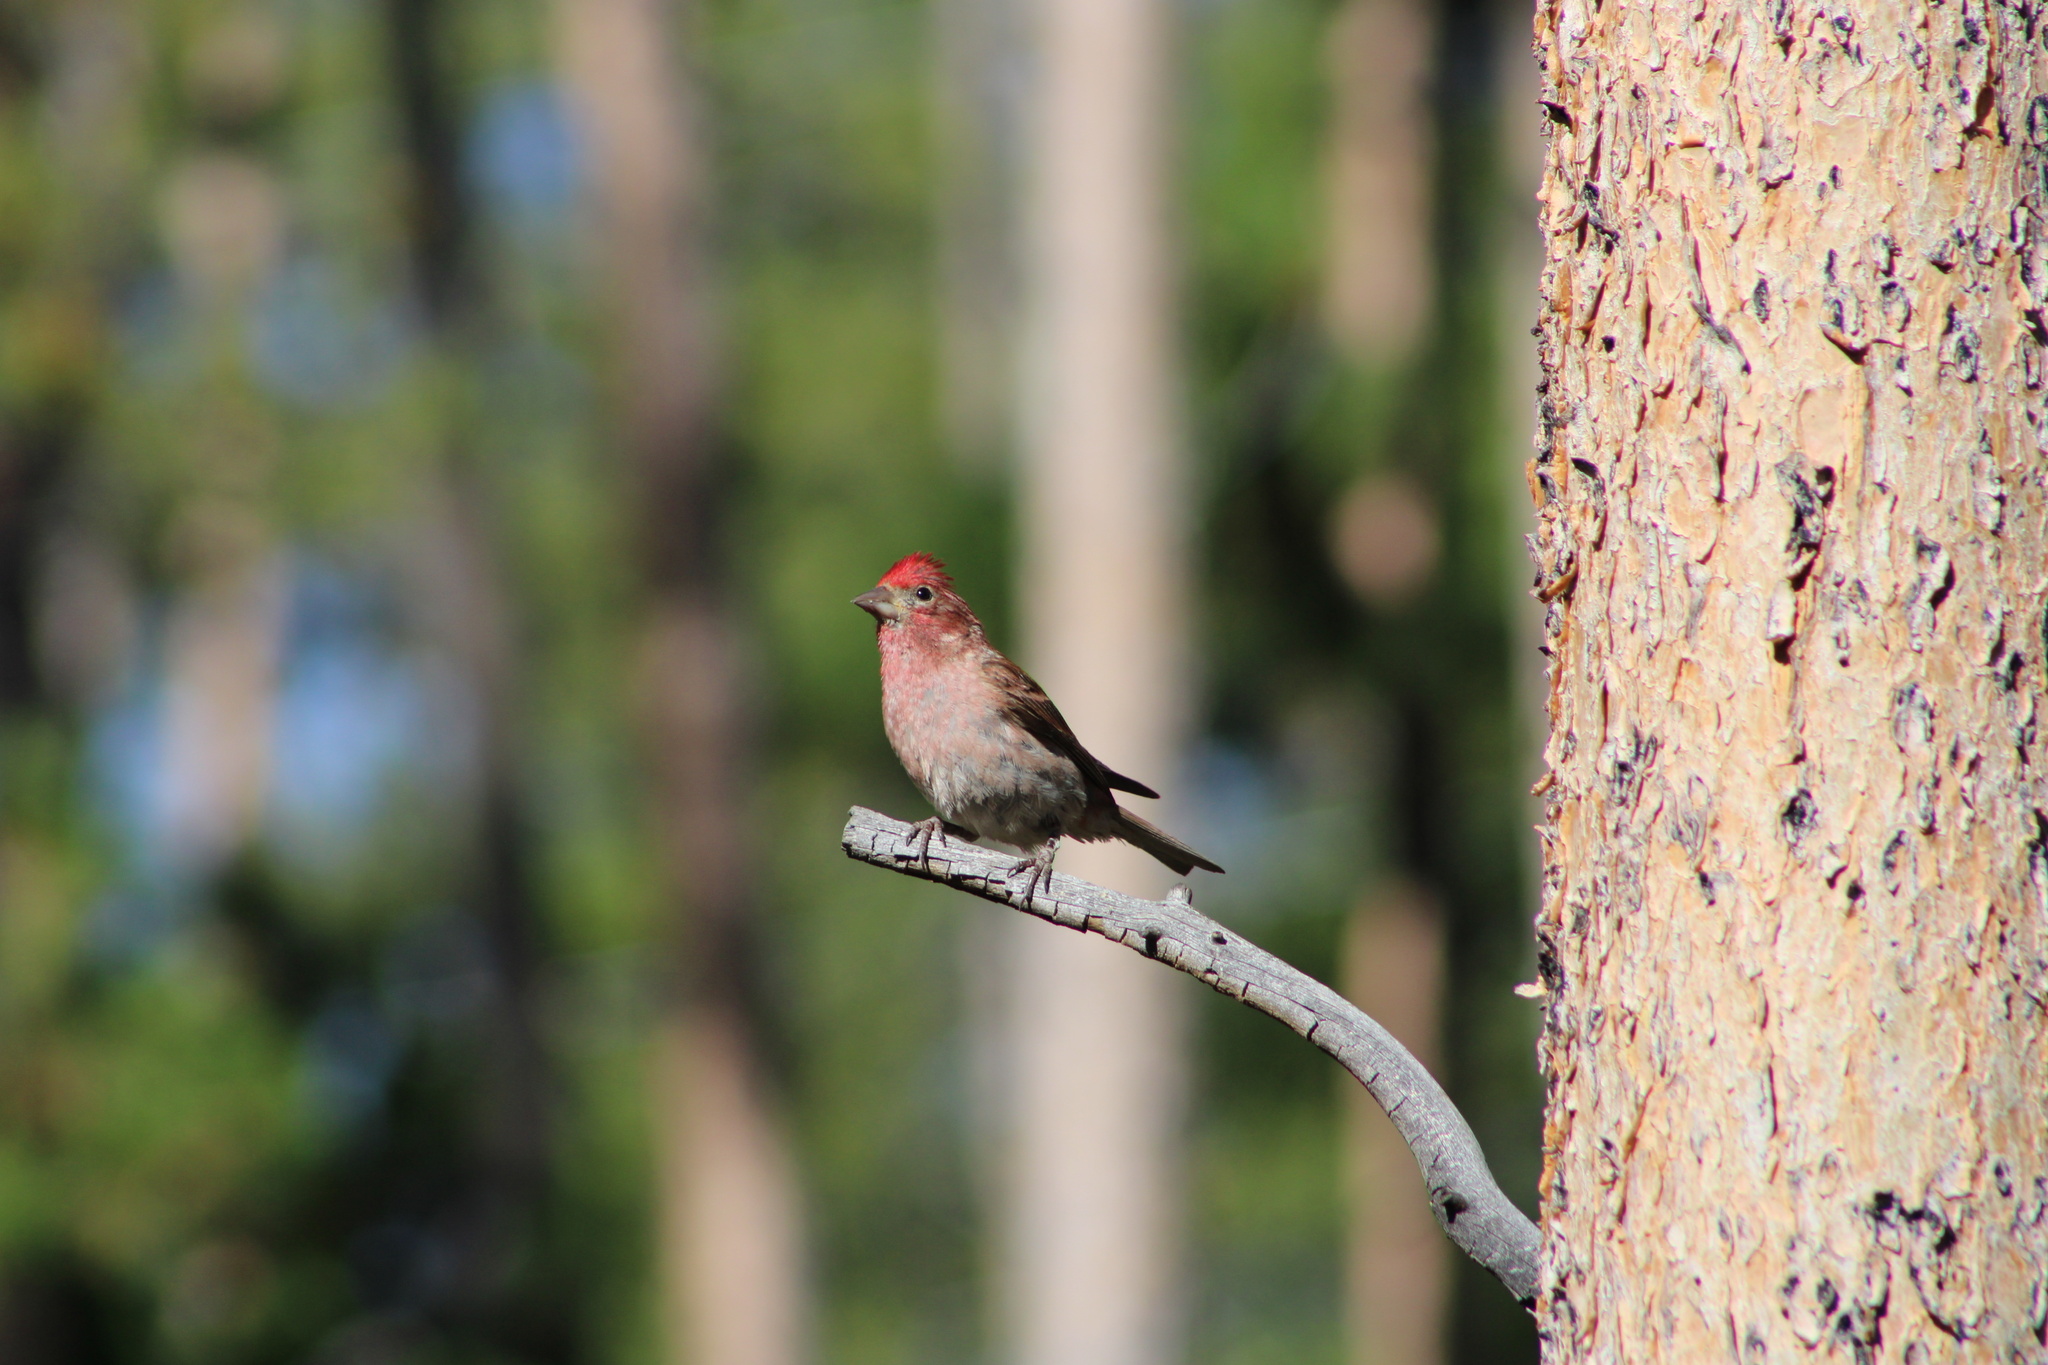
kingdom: Animalia
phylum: Chordata
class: Aves
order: Passeriformes
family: Fringillidae
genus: Haemorhous
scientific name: Haemorhous cassinii
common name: Cassin's finch
